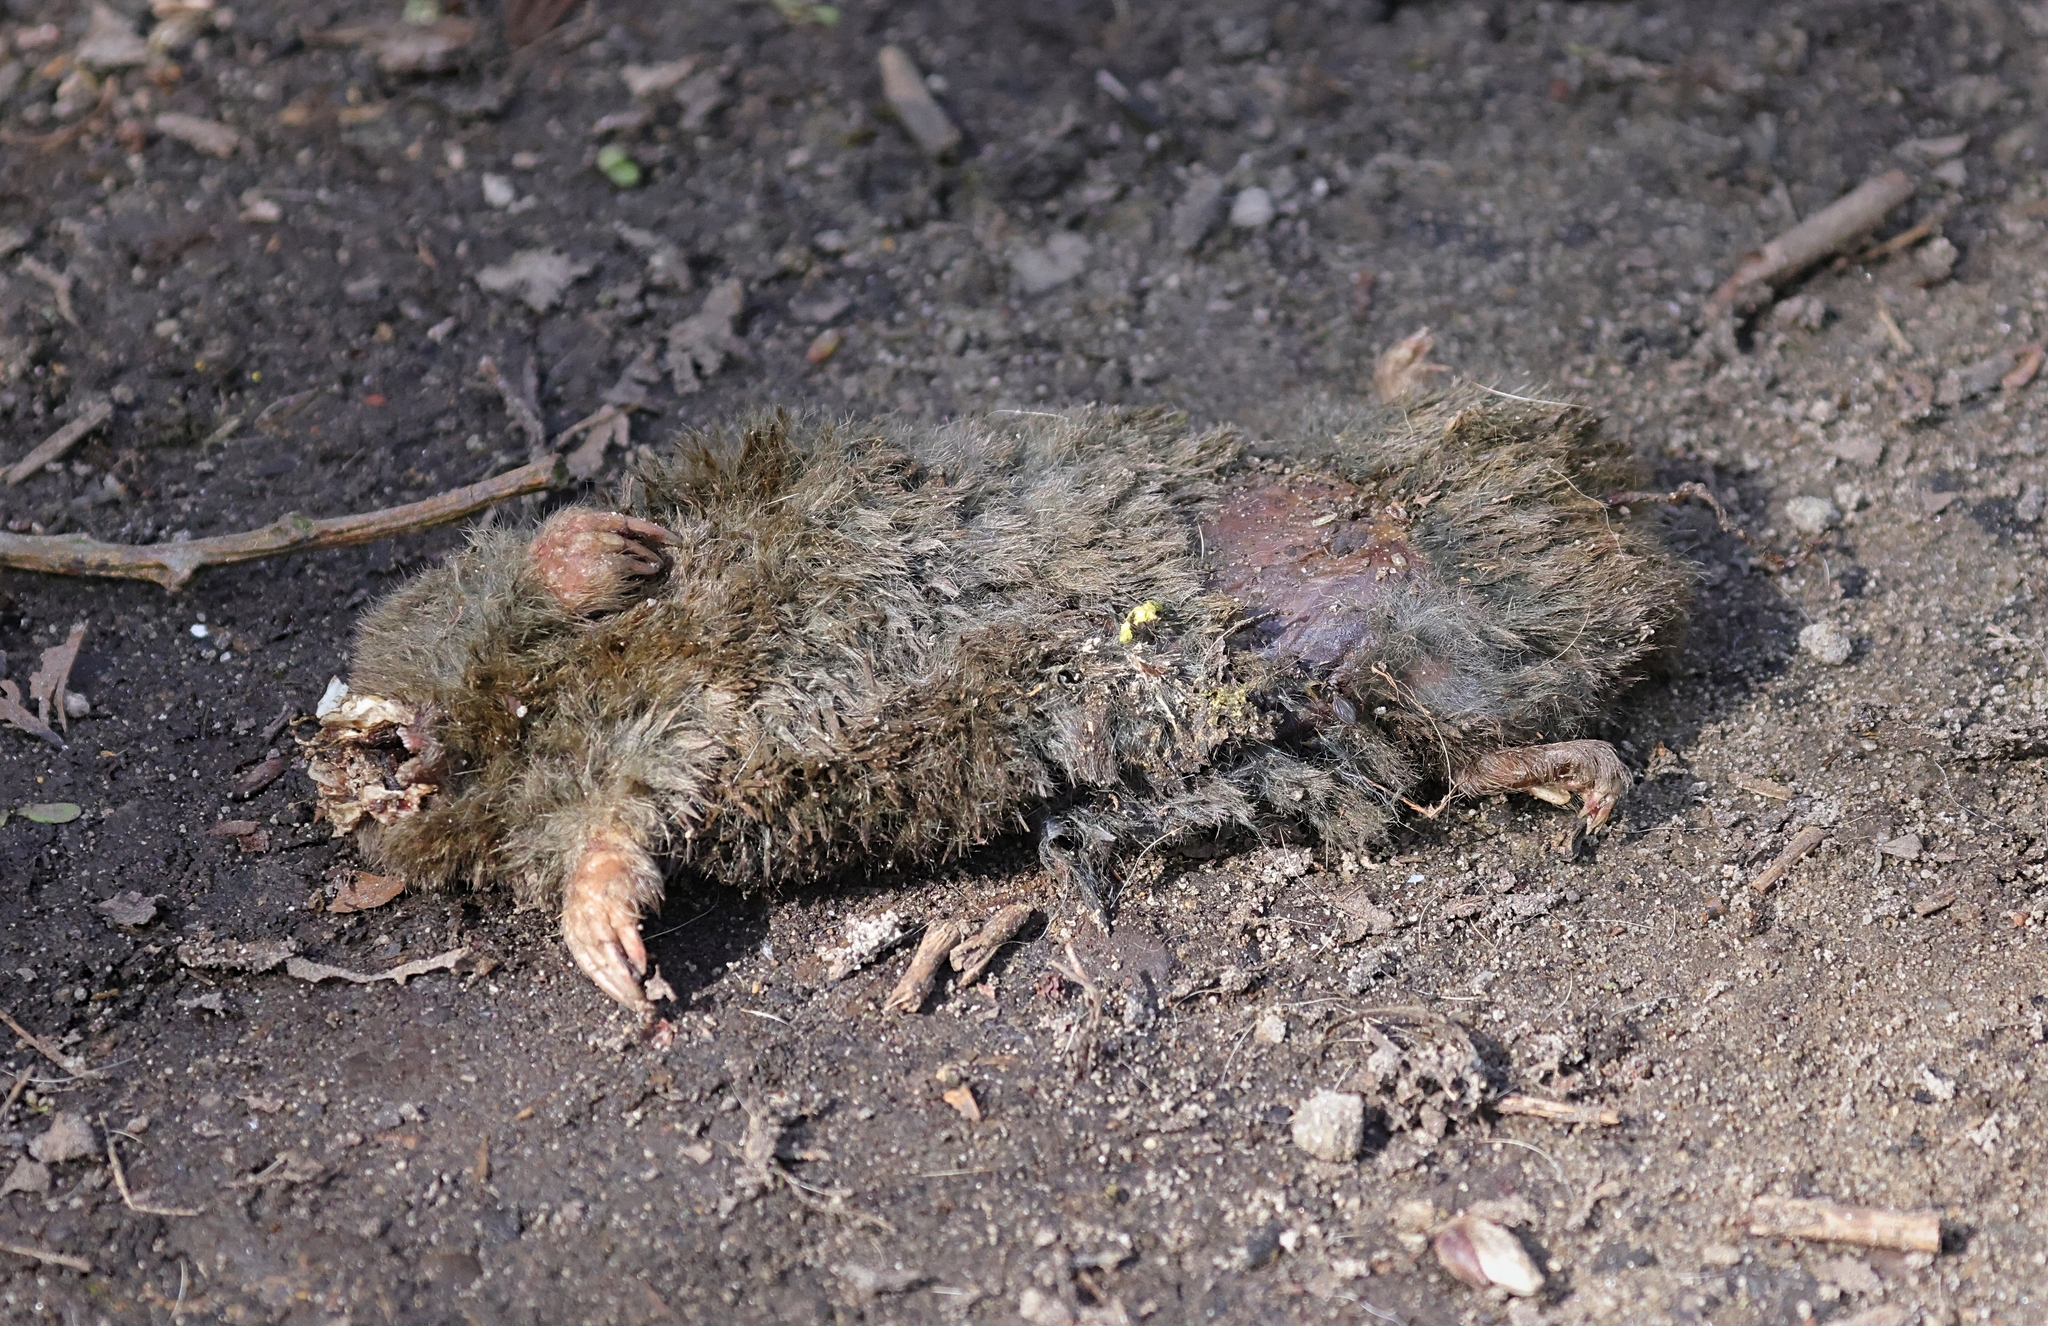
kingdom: Animalia
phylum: Chordata
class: Mammalia
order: Soricomorpha
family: Talpidae
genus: Talpa
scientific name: Talpa europaea
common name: European mole
